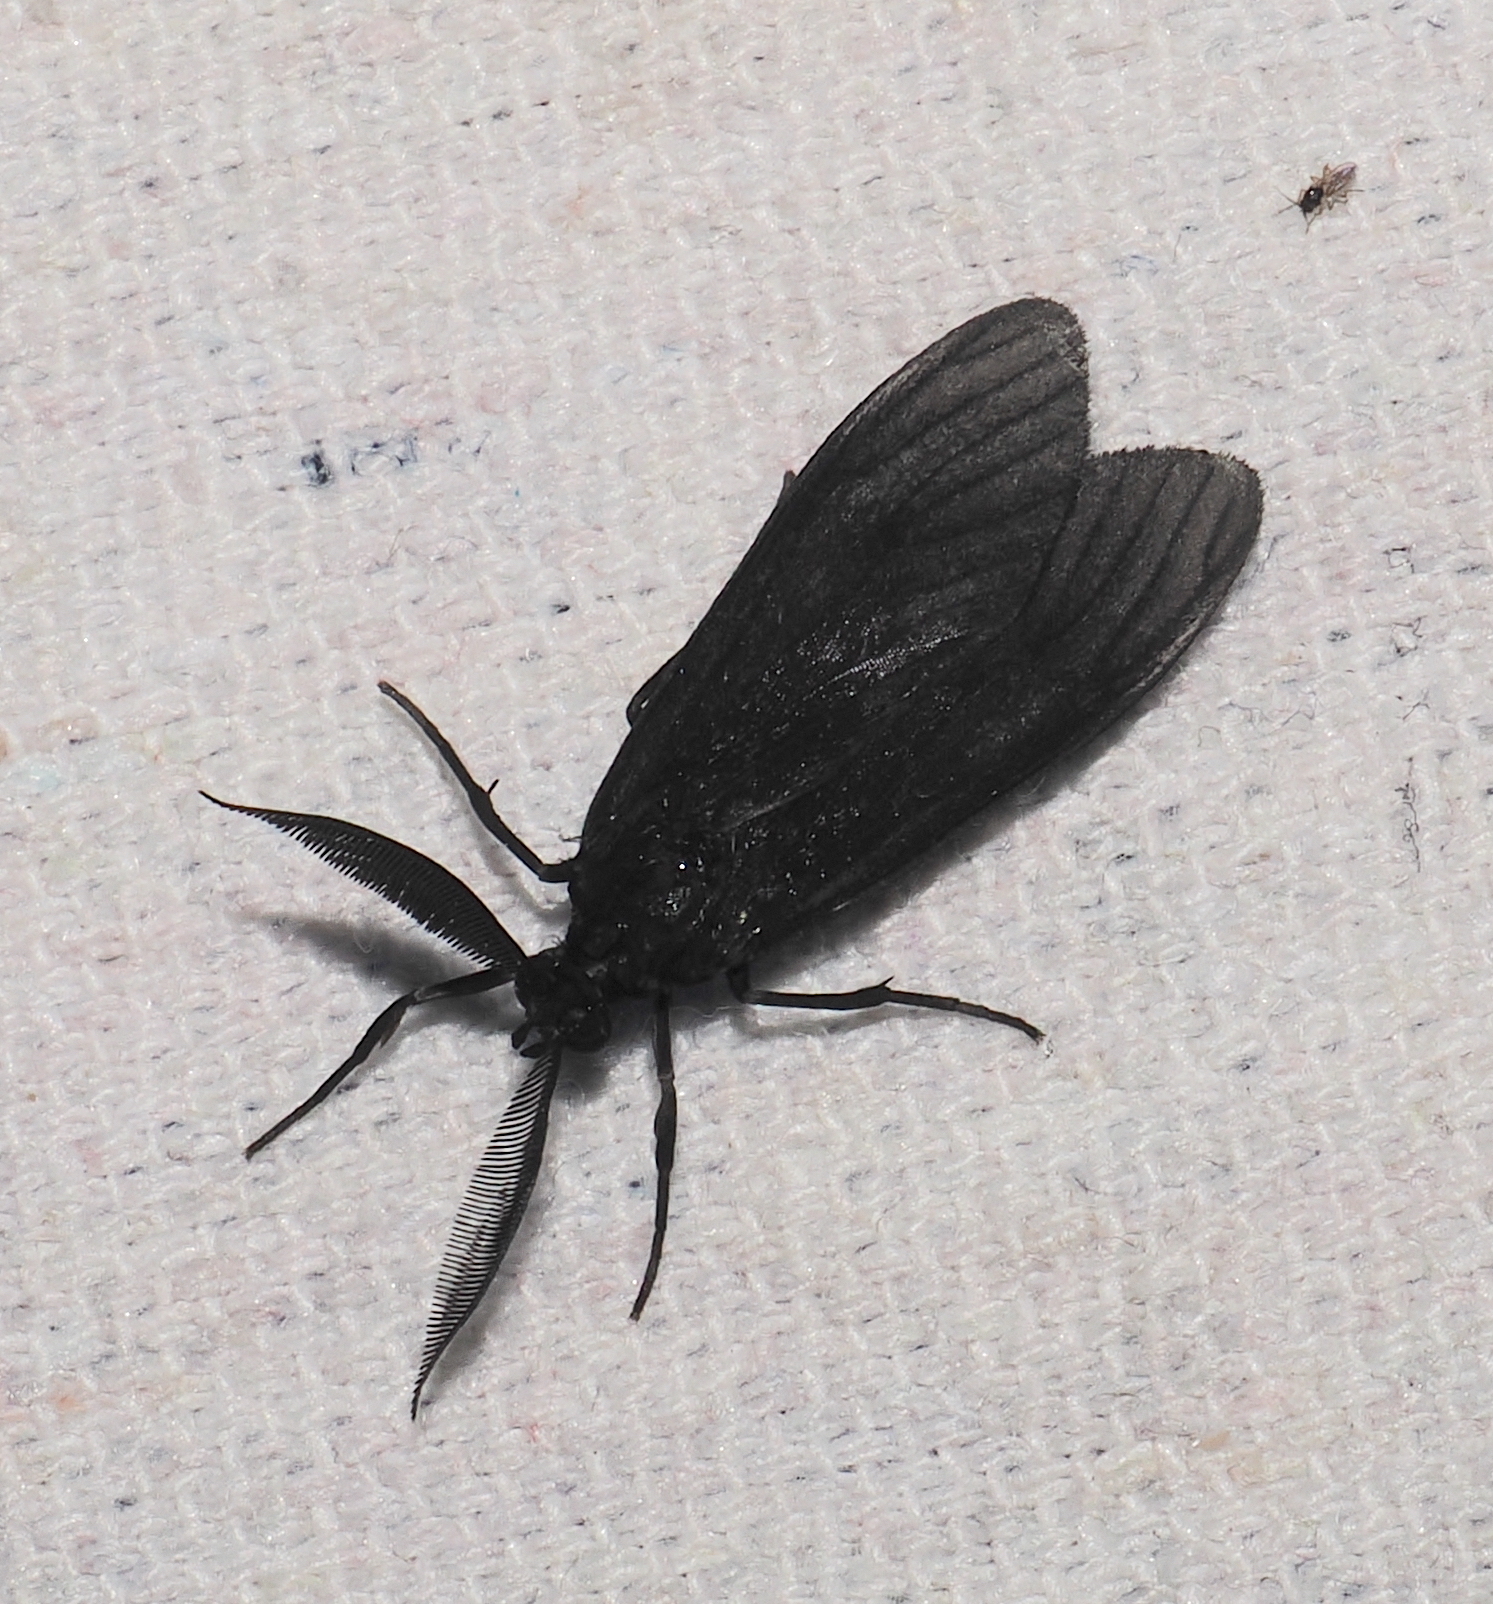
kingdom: Animalia
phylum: Arthropoda
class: Insecta
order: Lepidoptera
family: Erebidae
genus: Sciopsyche
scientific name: Sciopsyche tropica
